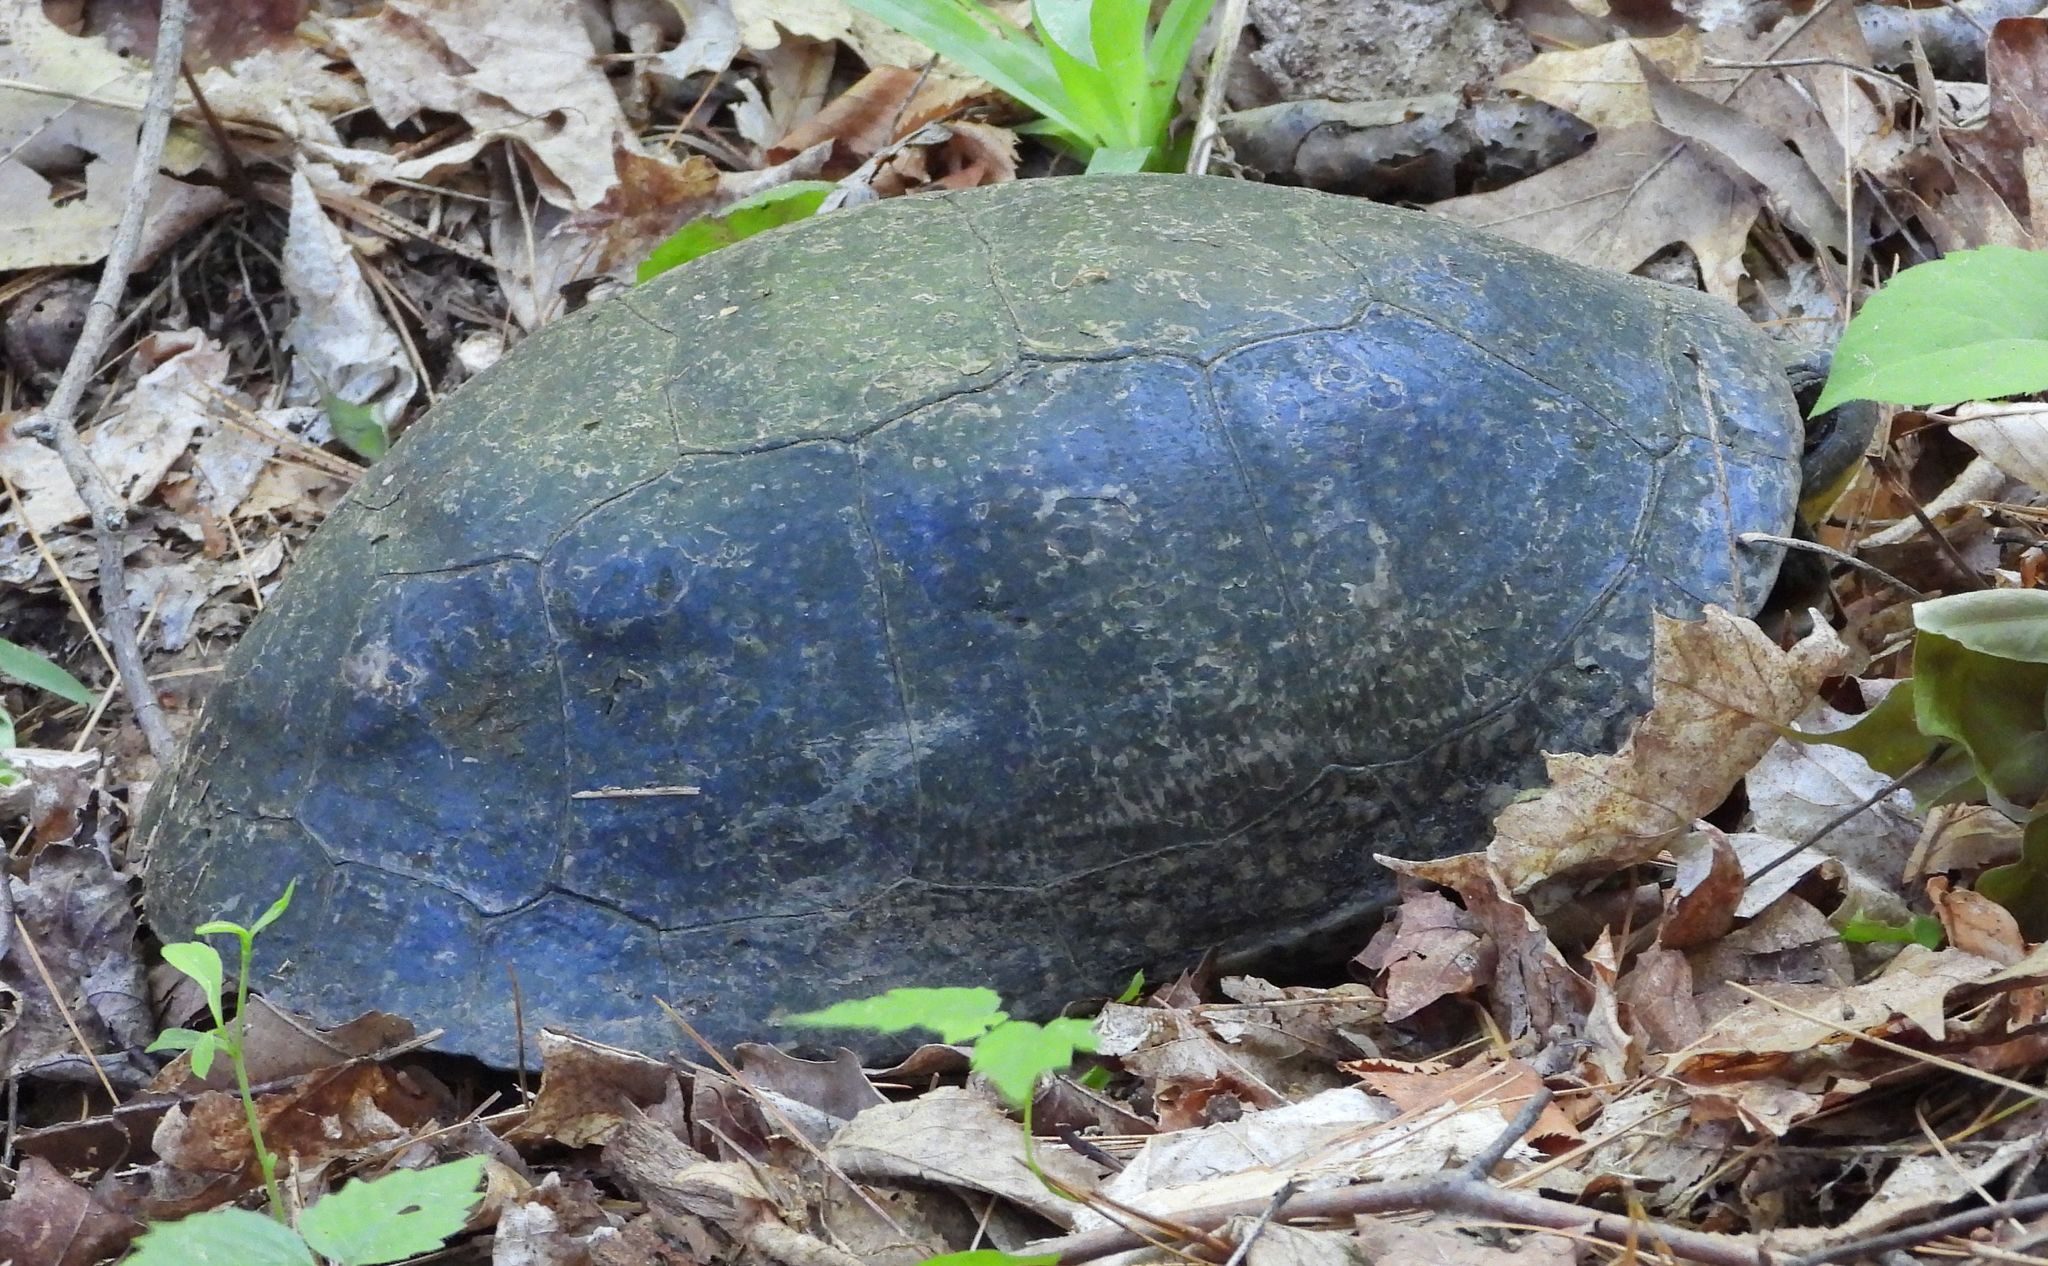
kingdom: Animalia
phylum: Chordata
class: Testudines
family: Emydidae
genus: Emys
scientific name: Emys blandingii
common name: Blanding's turtle
